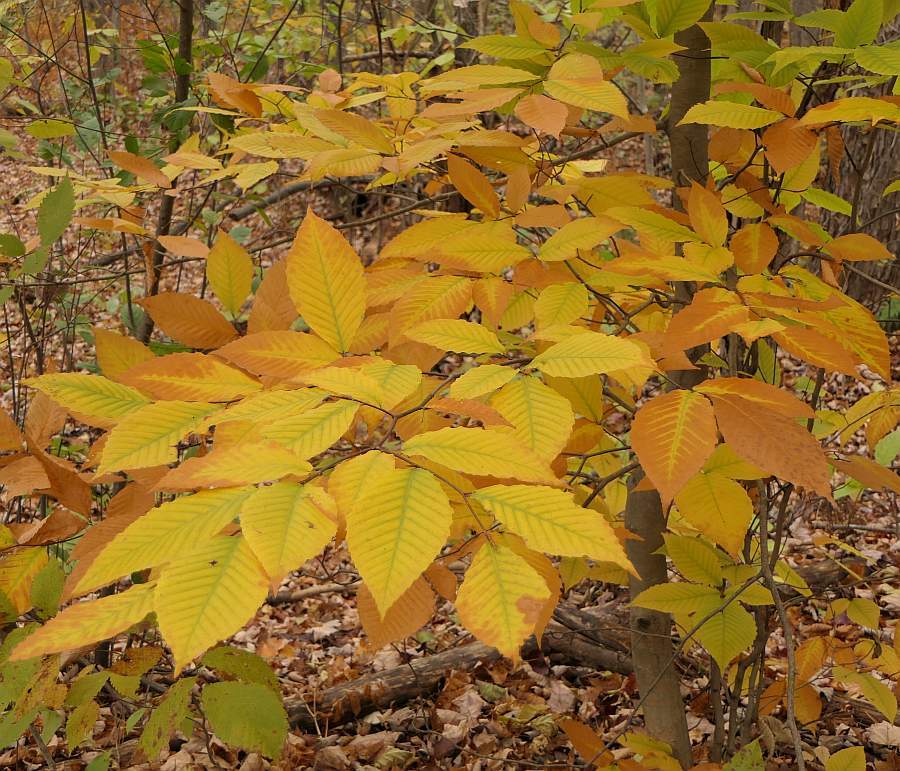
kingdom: Plantae
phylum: Tracheophyta
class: Magnoliopsida
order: Fagales
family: Fagaceae
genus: Fagus
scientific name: Fagus grandifolia
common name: American beech
